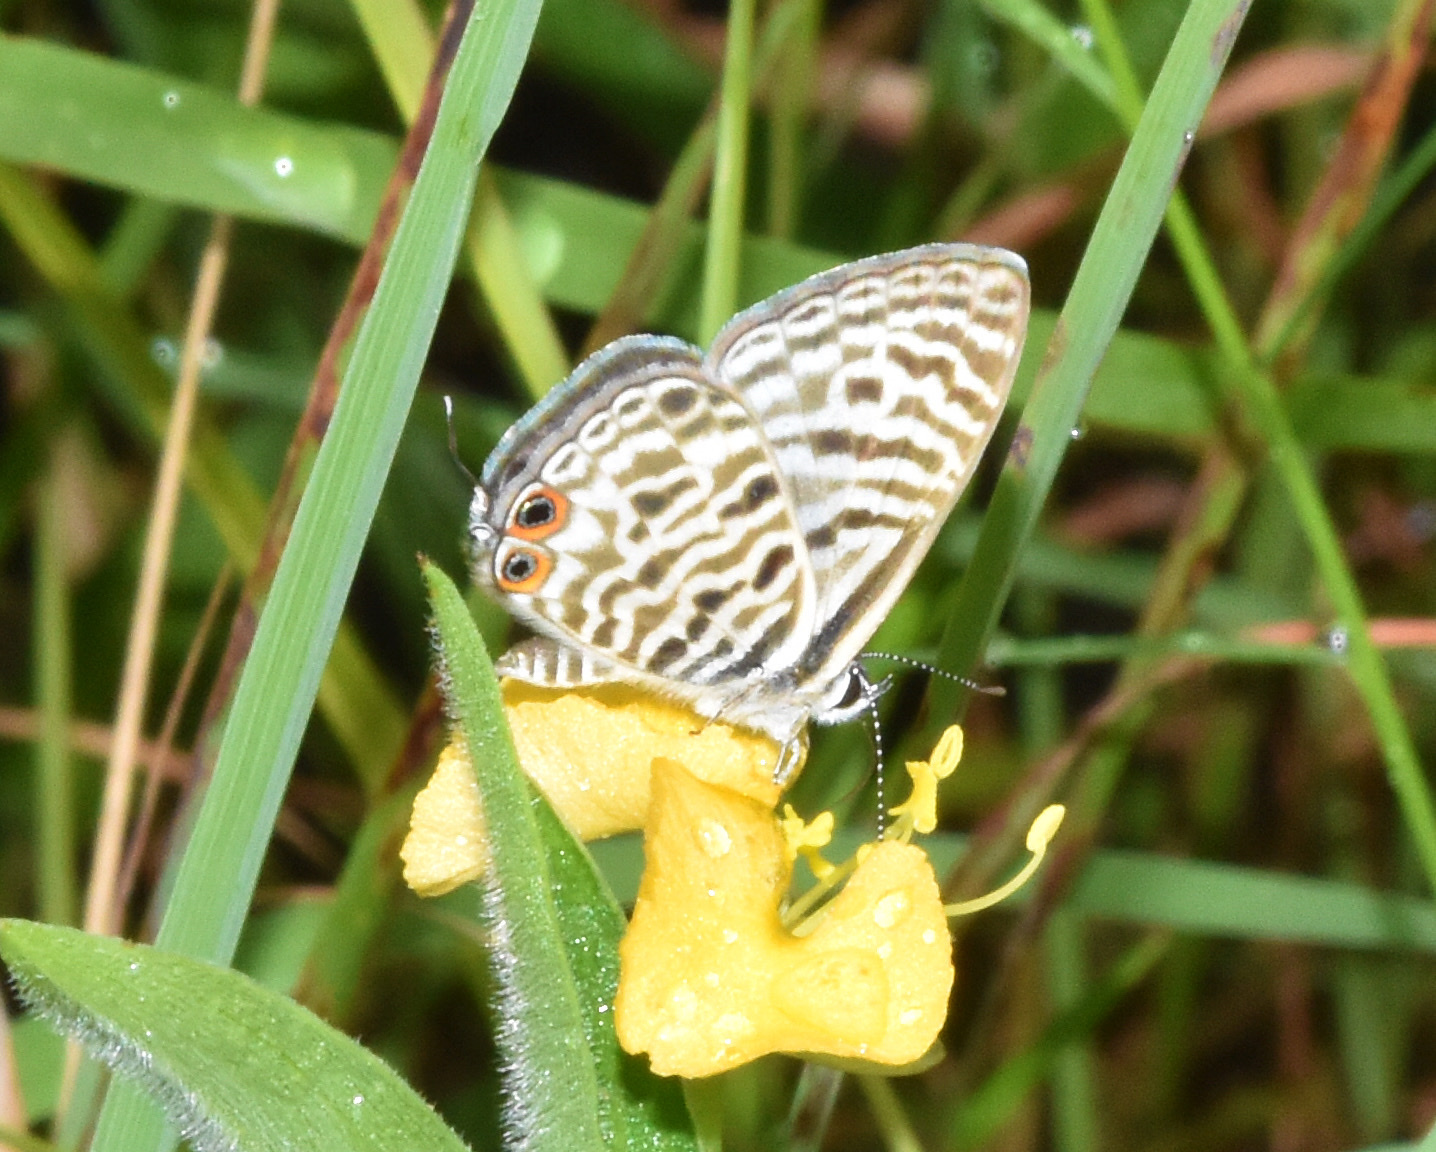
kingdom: Animalia
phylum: Arthropoda
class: Insecta
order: Lepidoptera
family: Lycaenidae
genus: Leptotes
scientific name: Leptotes
